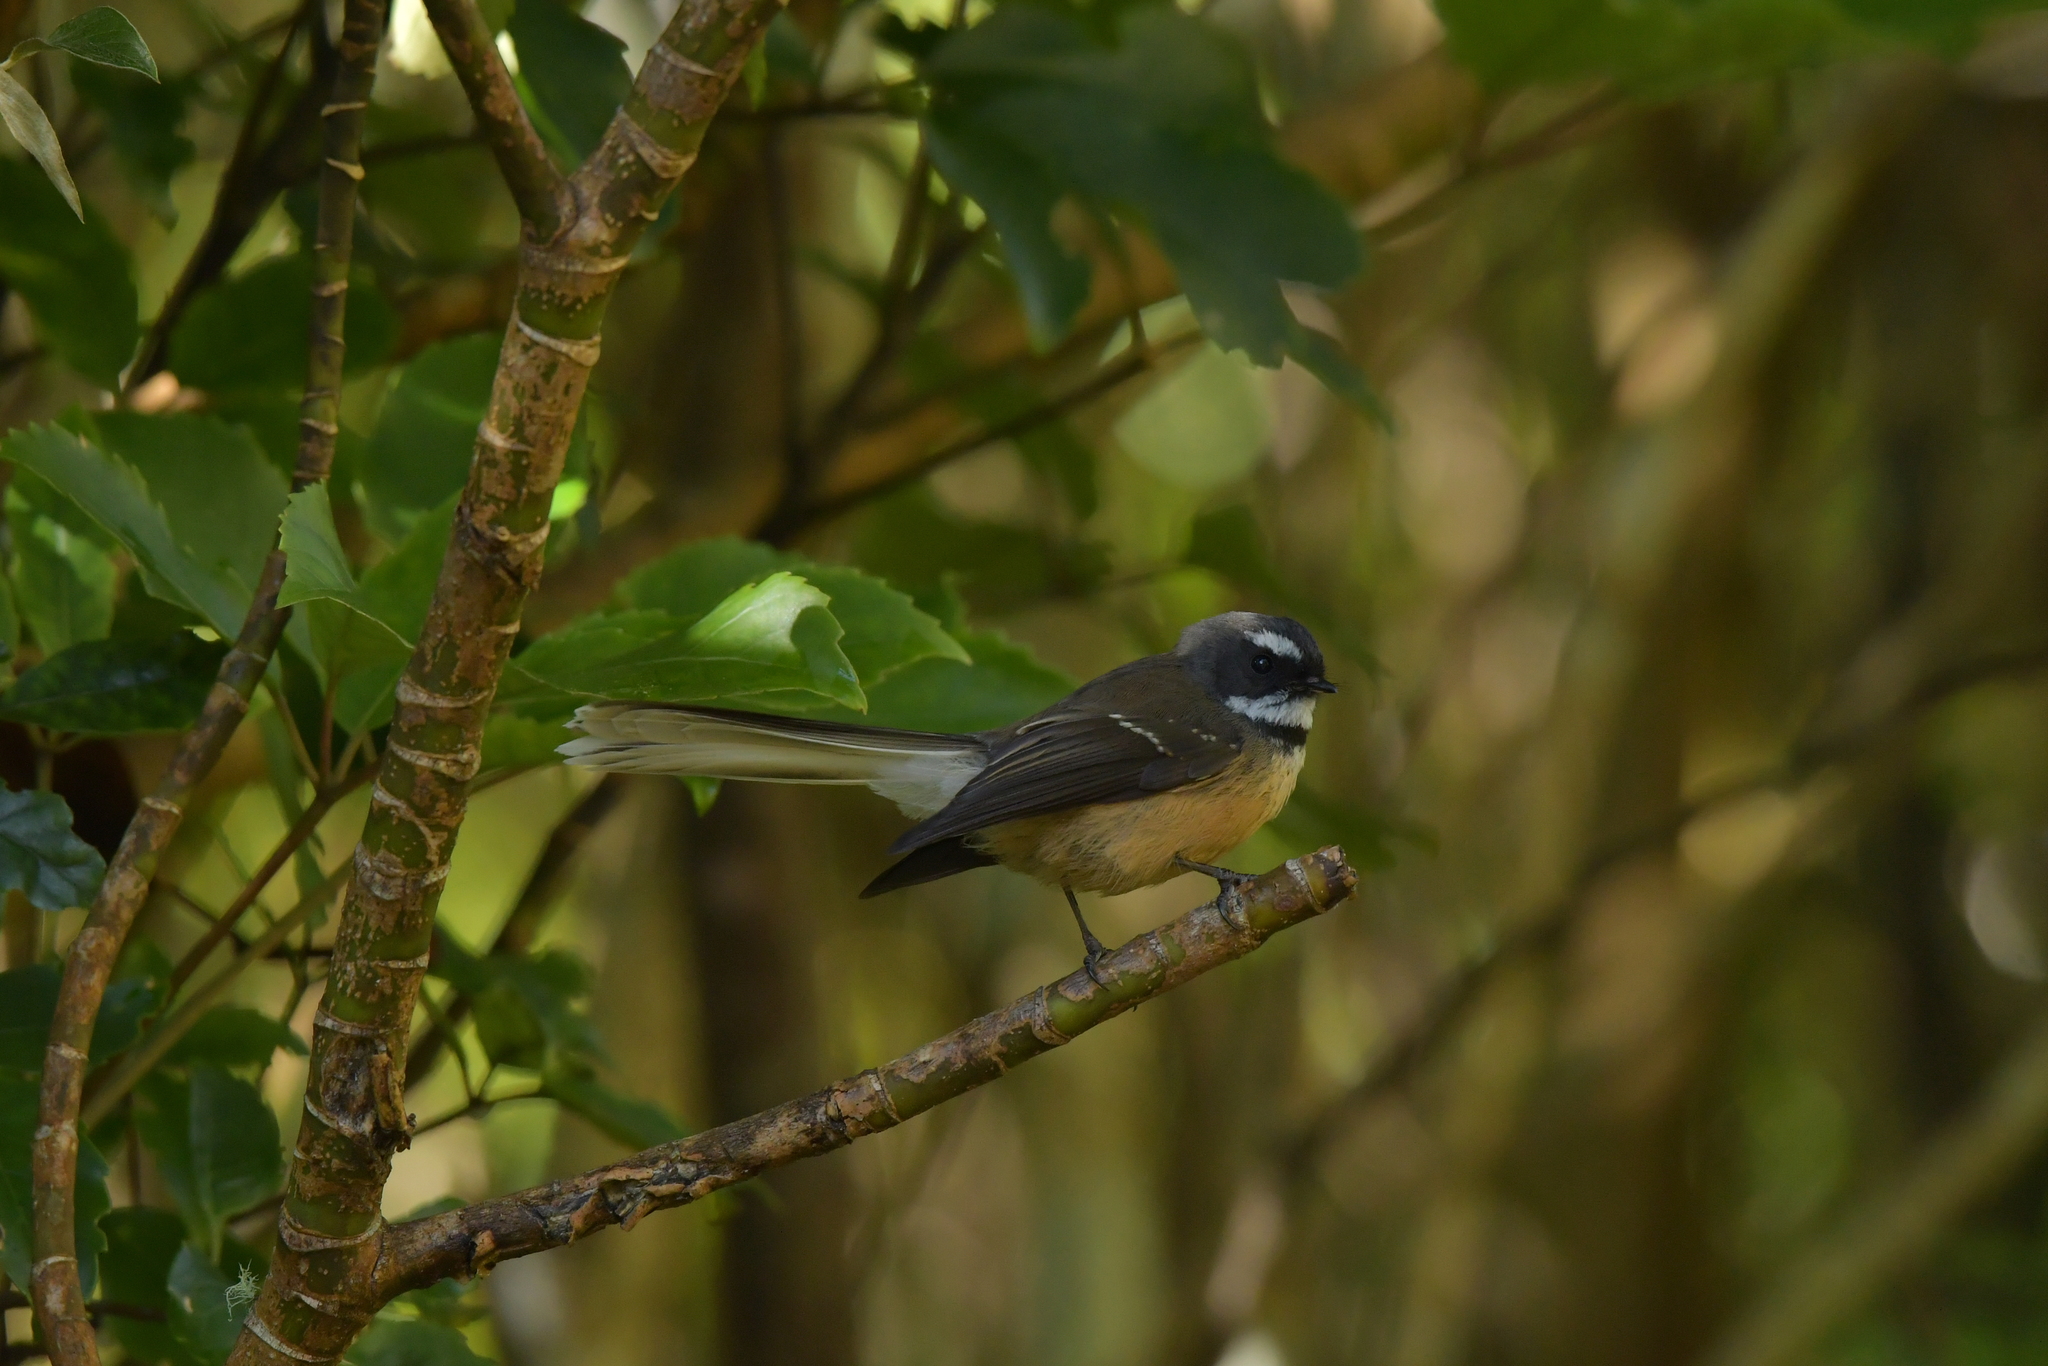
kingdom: Animalia
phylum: Chordata
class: Aves
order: Passeriformes
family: Rhipiduridae
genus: Rhipidura
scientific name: Rhipidura fuliginosa
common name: New zealand fantail
